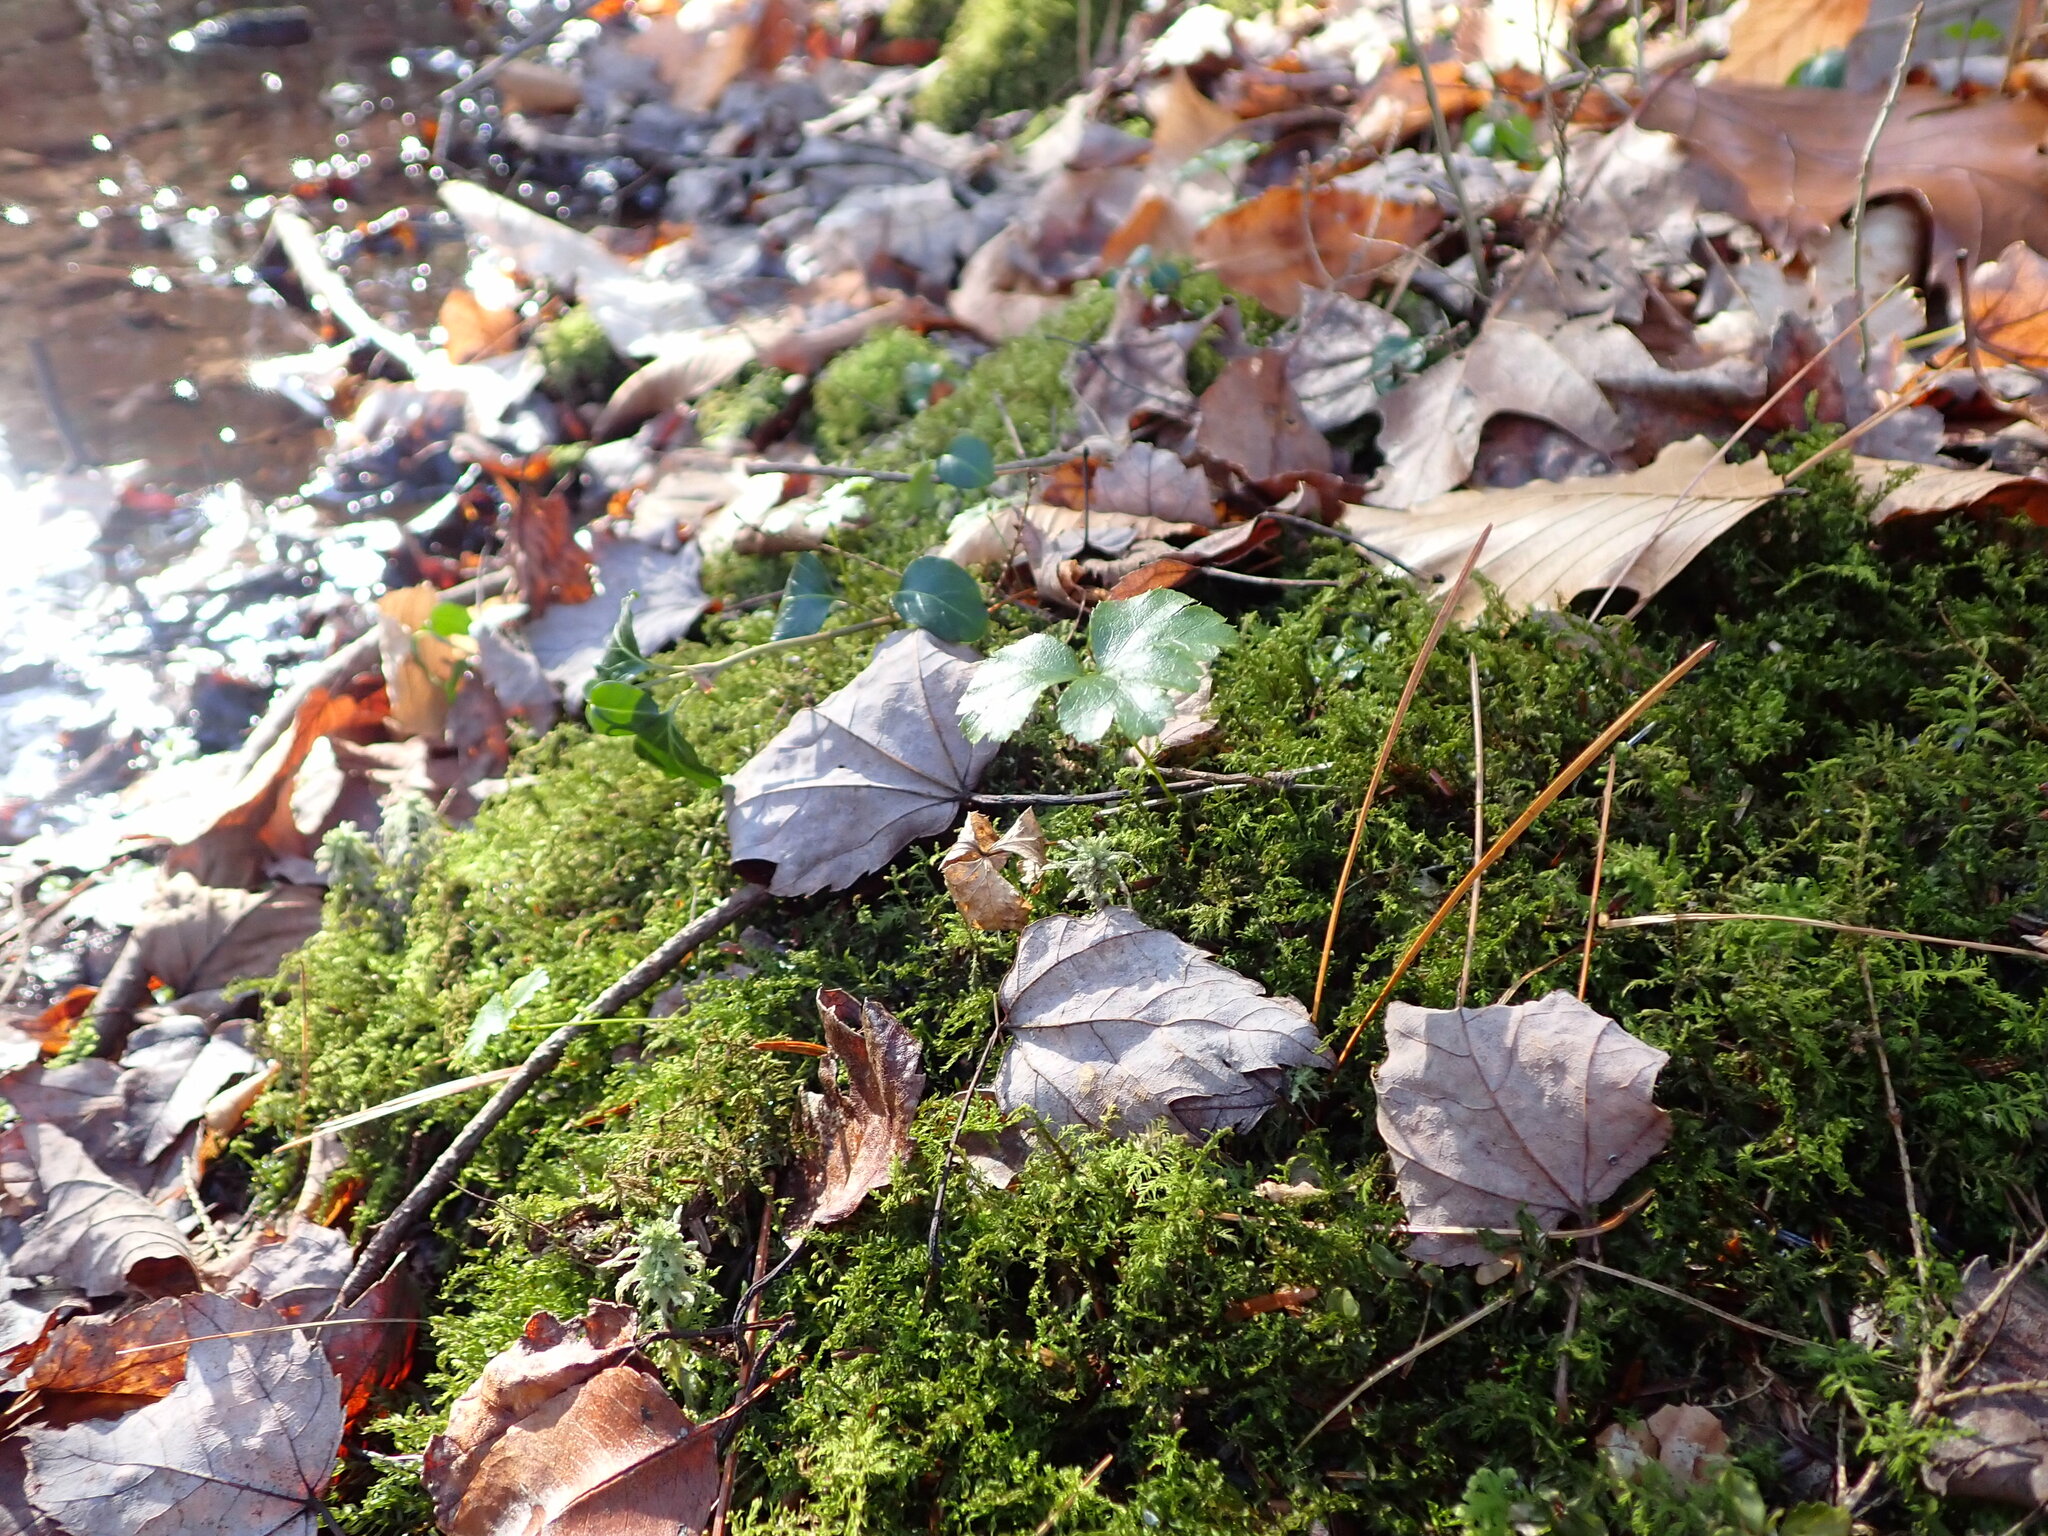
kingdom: Plantae
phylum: Tracheophyta
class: Magnoliopsida
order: Ranunculales
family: Ranunculaceae
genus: Coptis
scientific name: Coptis trifolia
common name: Canker-root
